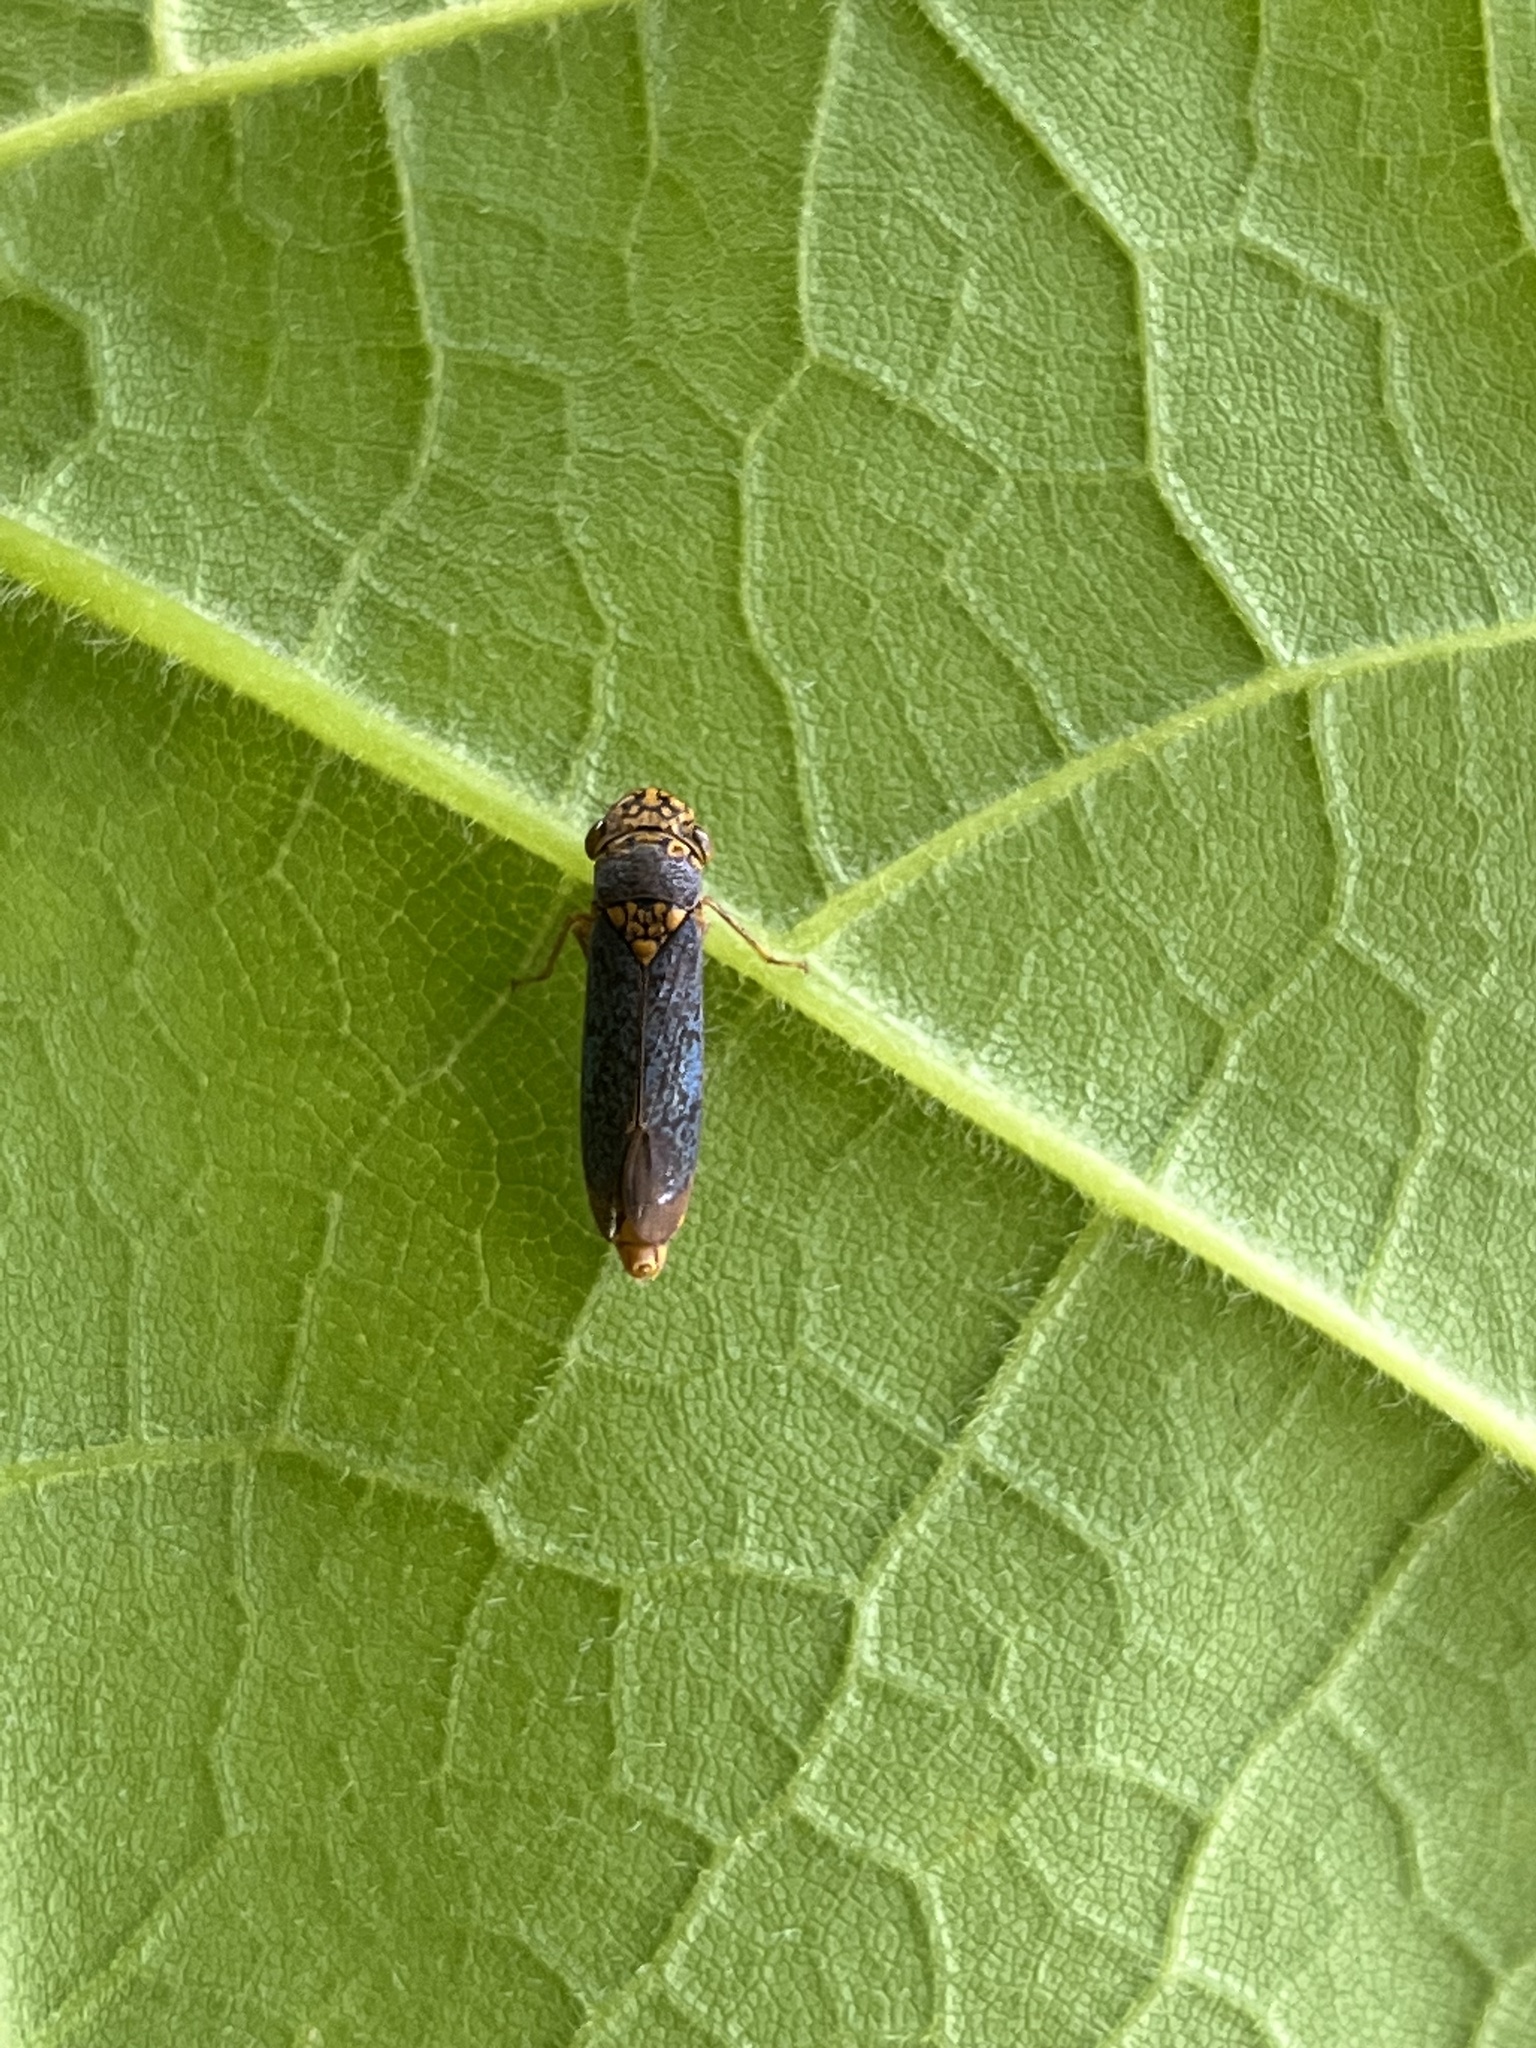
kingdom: Animalia
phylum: Arthropoda
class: Insecta
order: Hemiptera
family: Cicadellidae
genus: Oncometopia
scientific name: Oncometopia orbona
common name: Broad-headed sharpshooter
